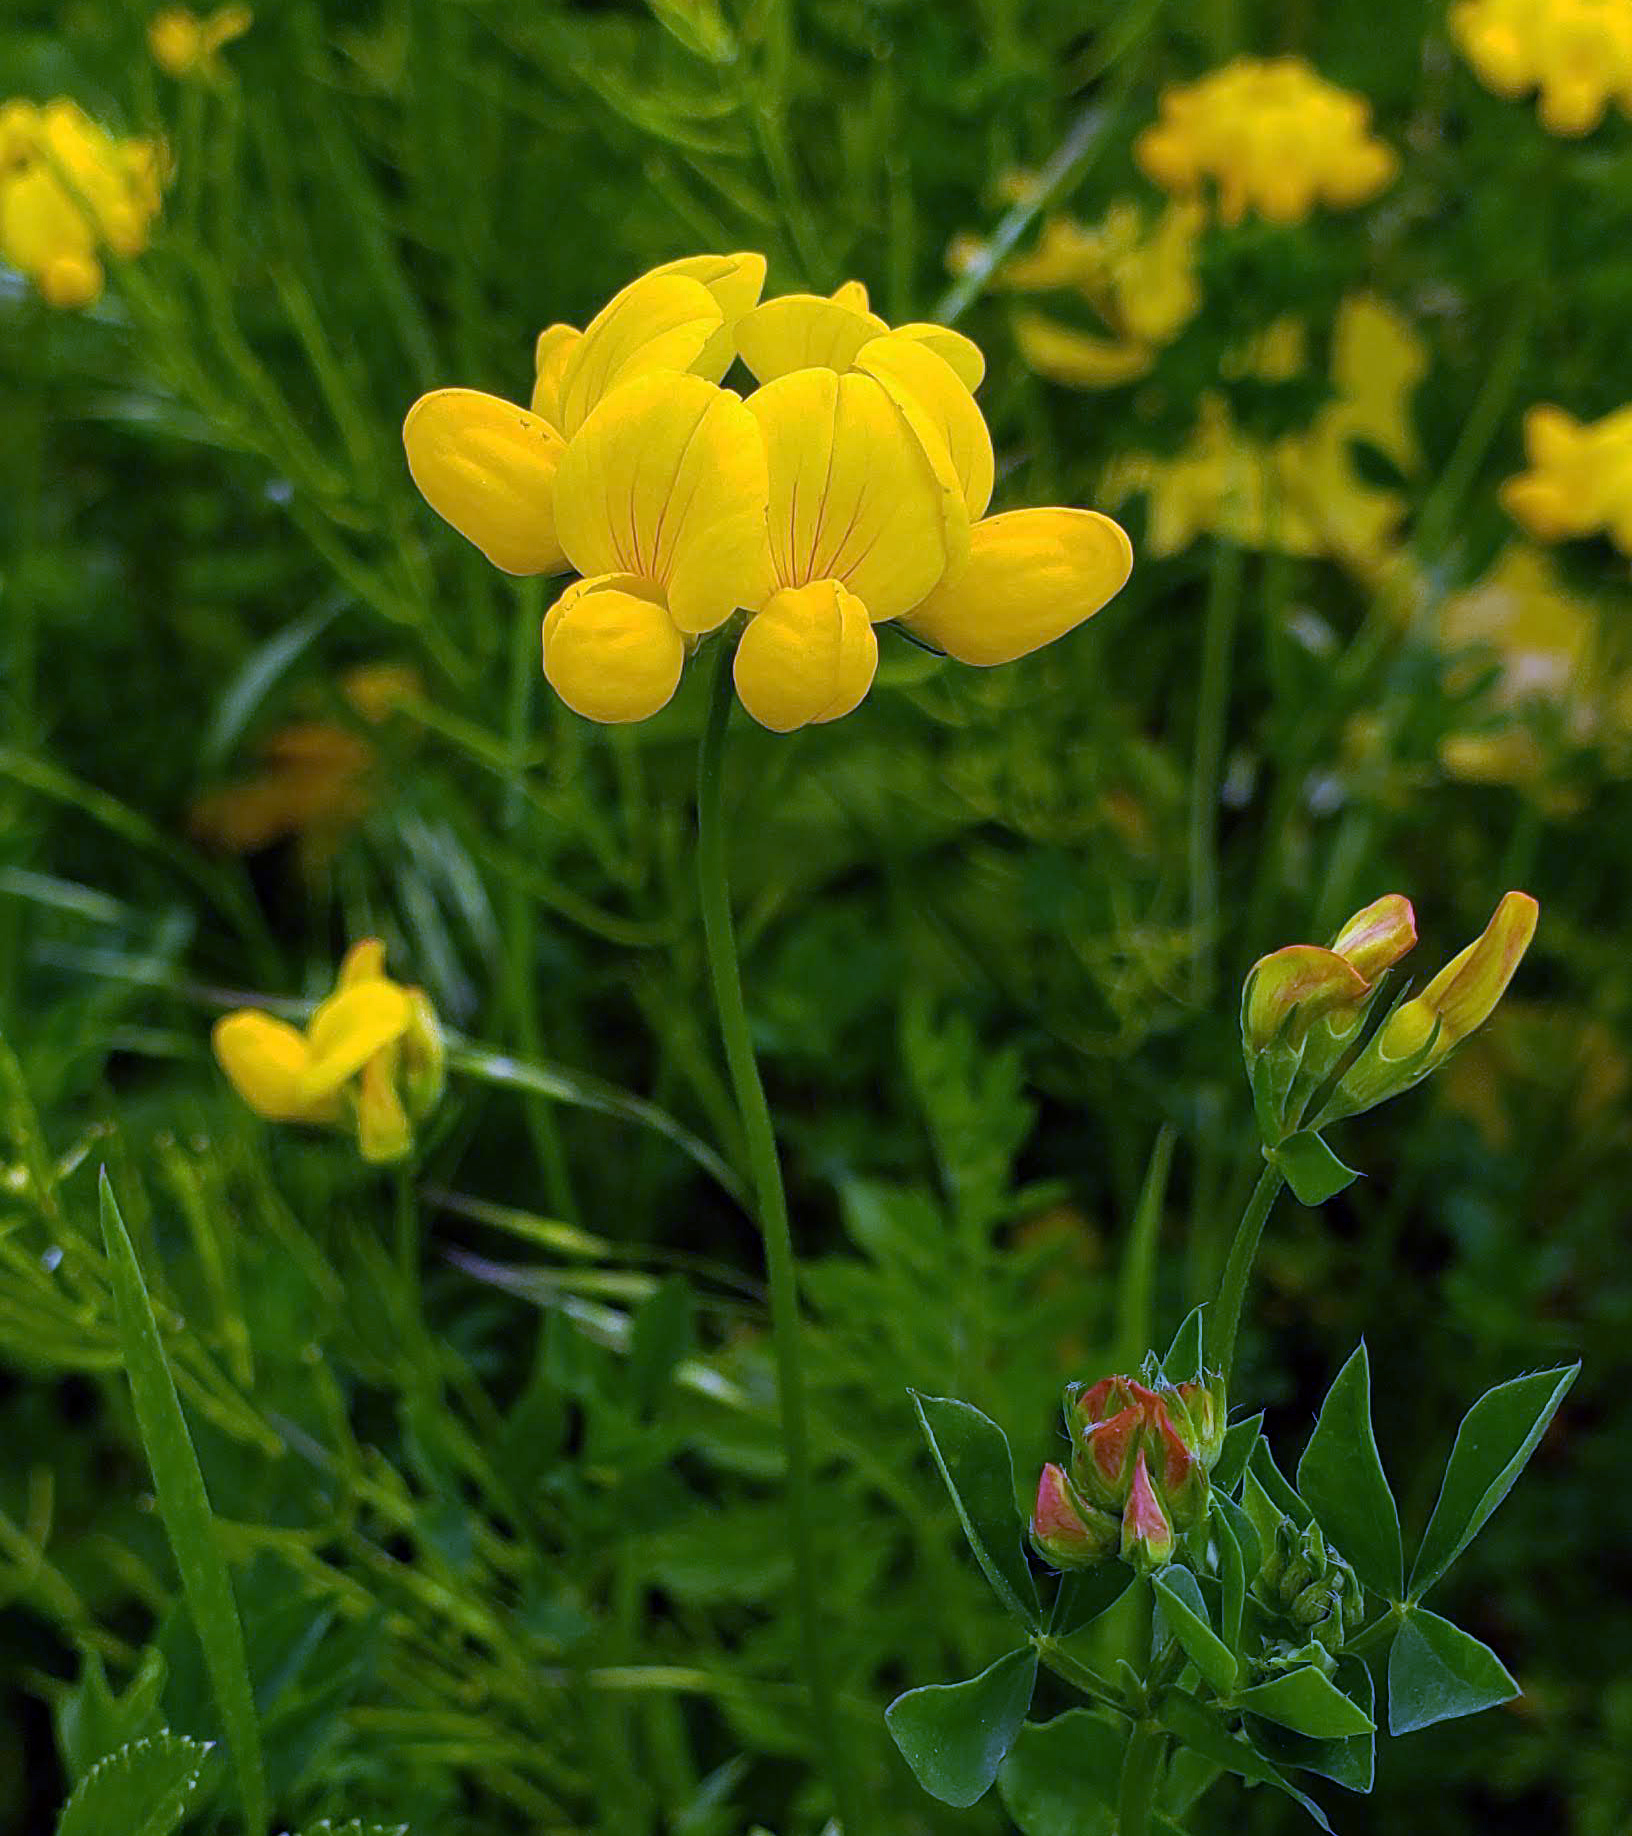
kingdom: Plantae
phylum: Tracheophyta
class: Magnoliopsida
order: Fabales
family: Fabaceae
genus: Lotus
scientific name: Lotus corniculatus
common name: Common bird's-foot-trefoil
